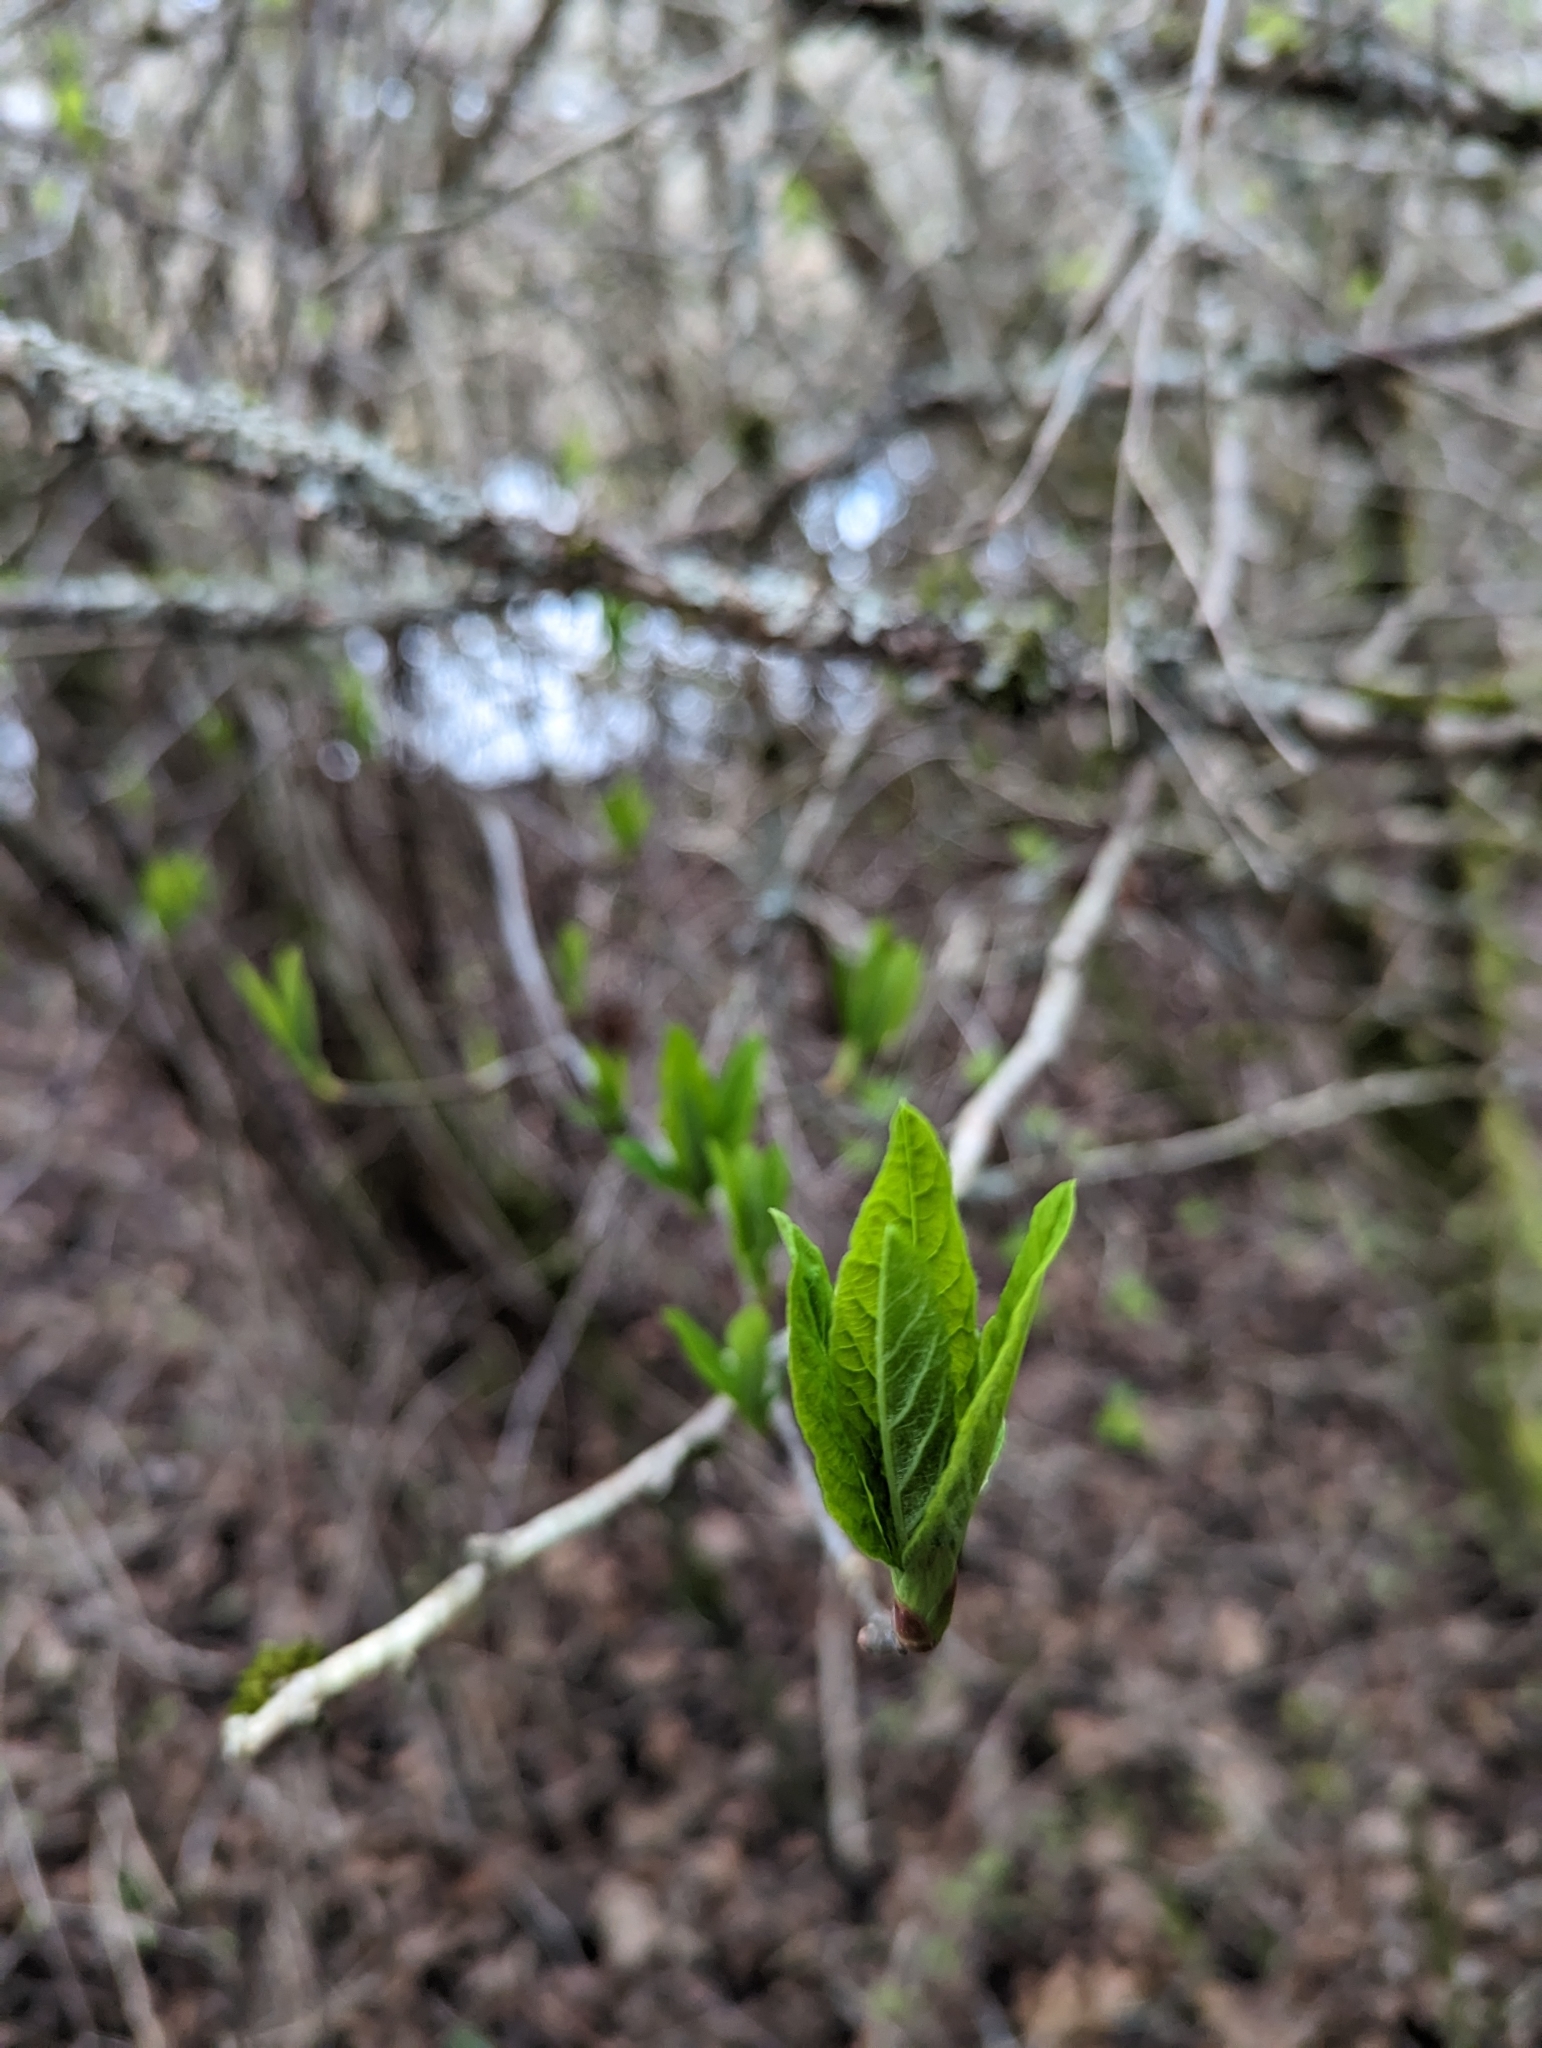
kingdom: Plantae
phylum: Tracheophyta
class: Magnoliopsida
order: Rosales
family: Rosaceae
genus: Oemleria
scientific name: Oemleria cerasiformis
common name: Osoberry
